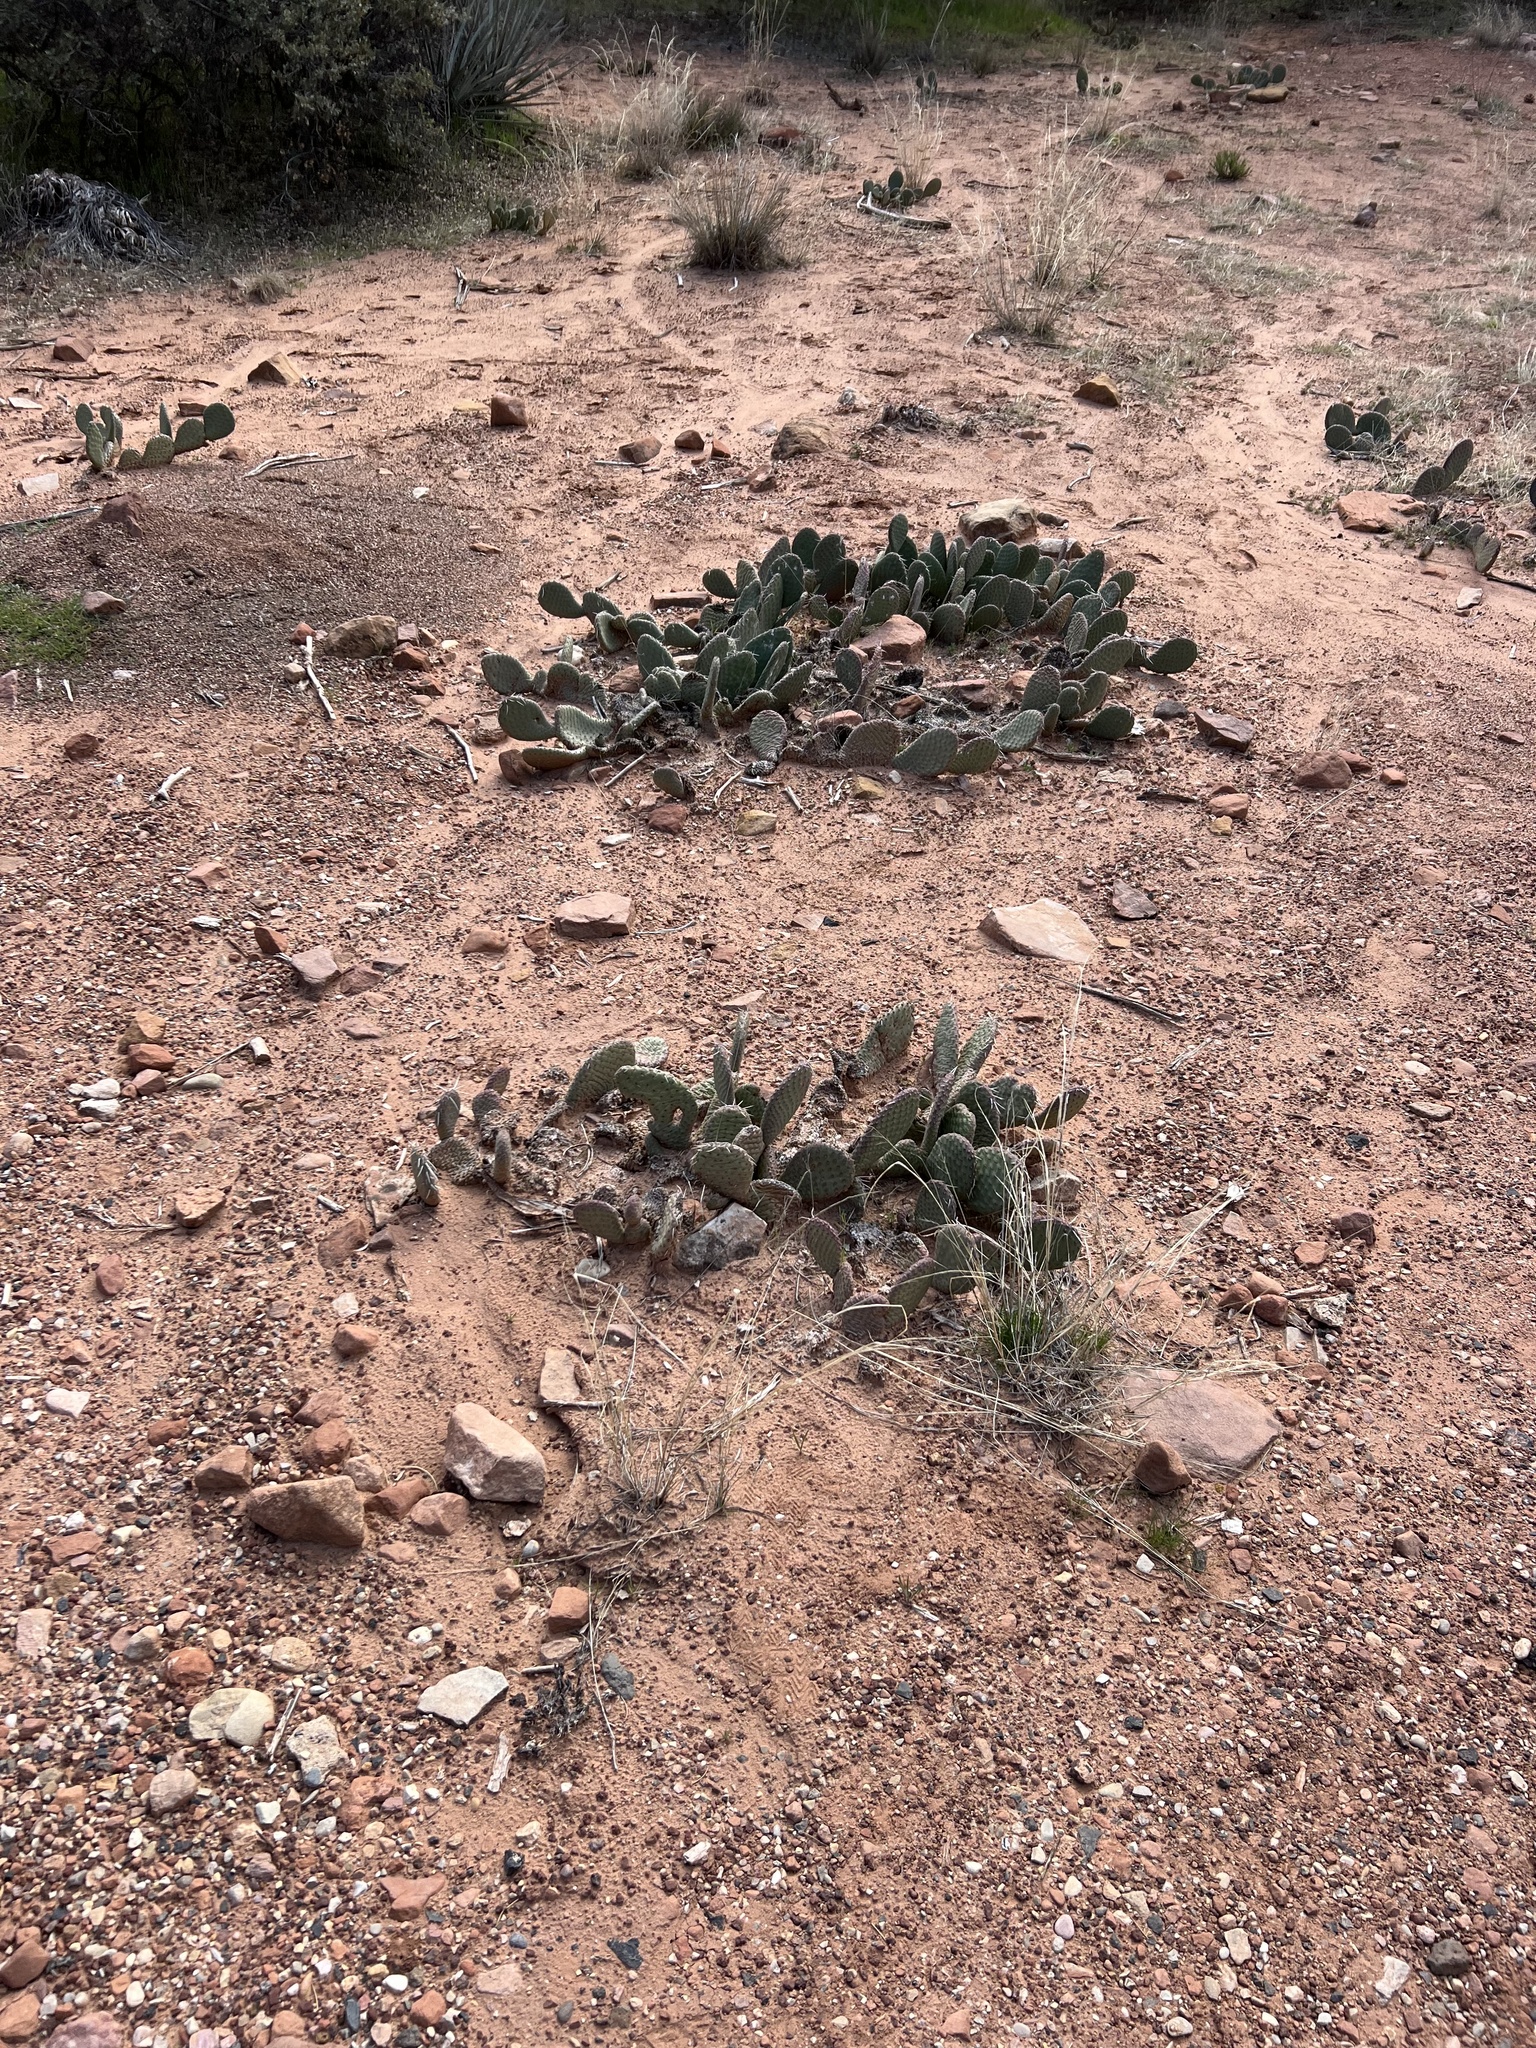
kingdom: Plantae
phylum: Tracheophyta
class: Magnoliopsida
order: Caryophyllales
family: Cactaceae
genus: Opuntia
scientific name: Opuntia aurea
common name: Golden prickly-pear
